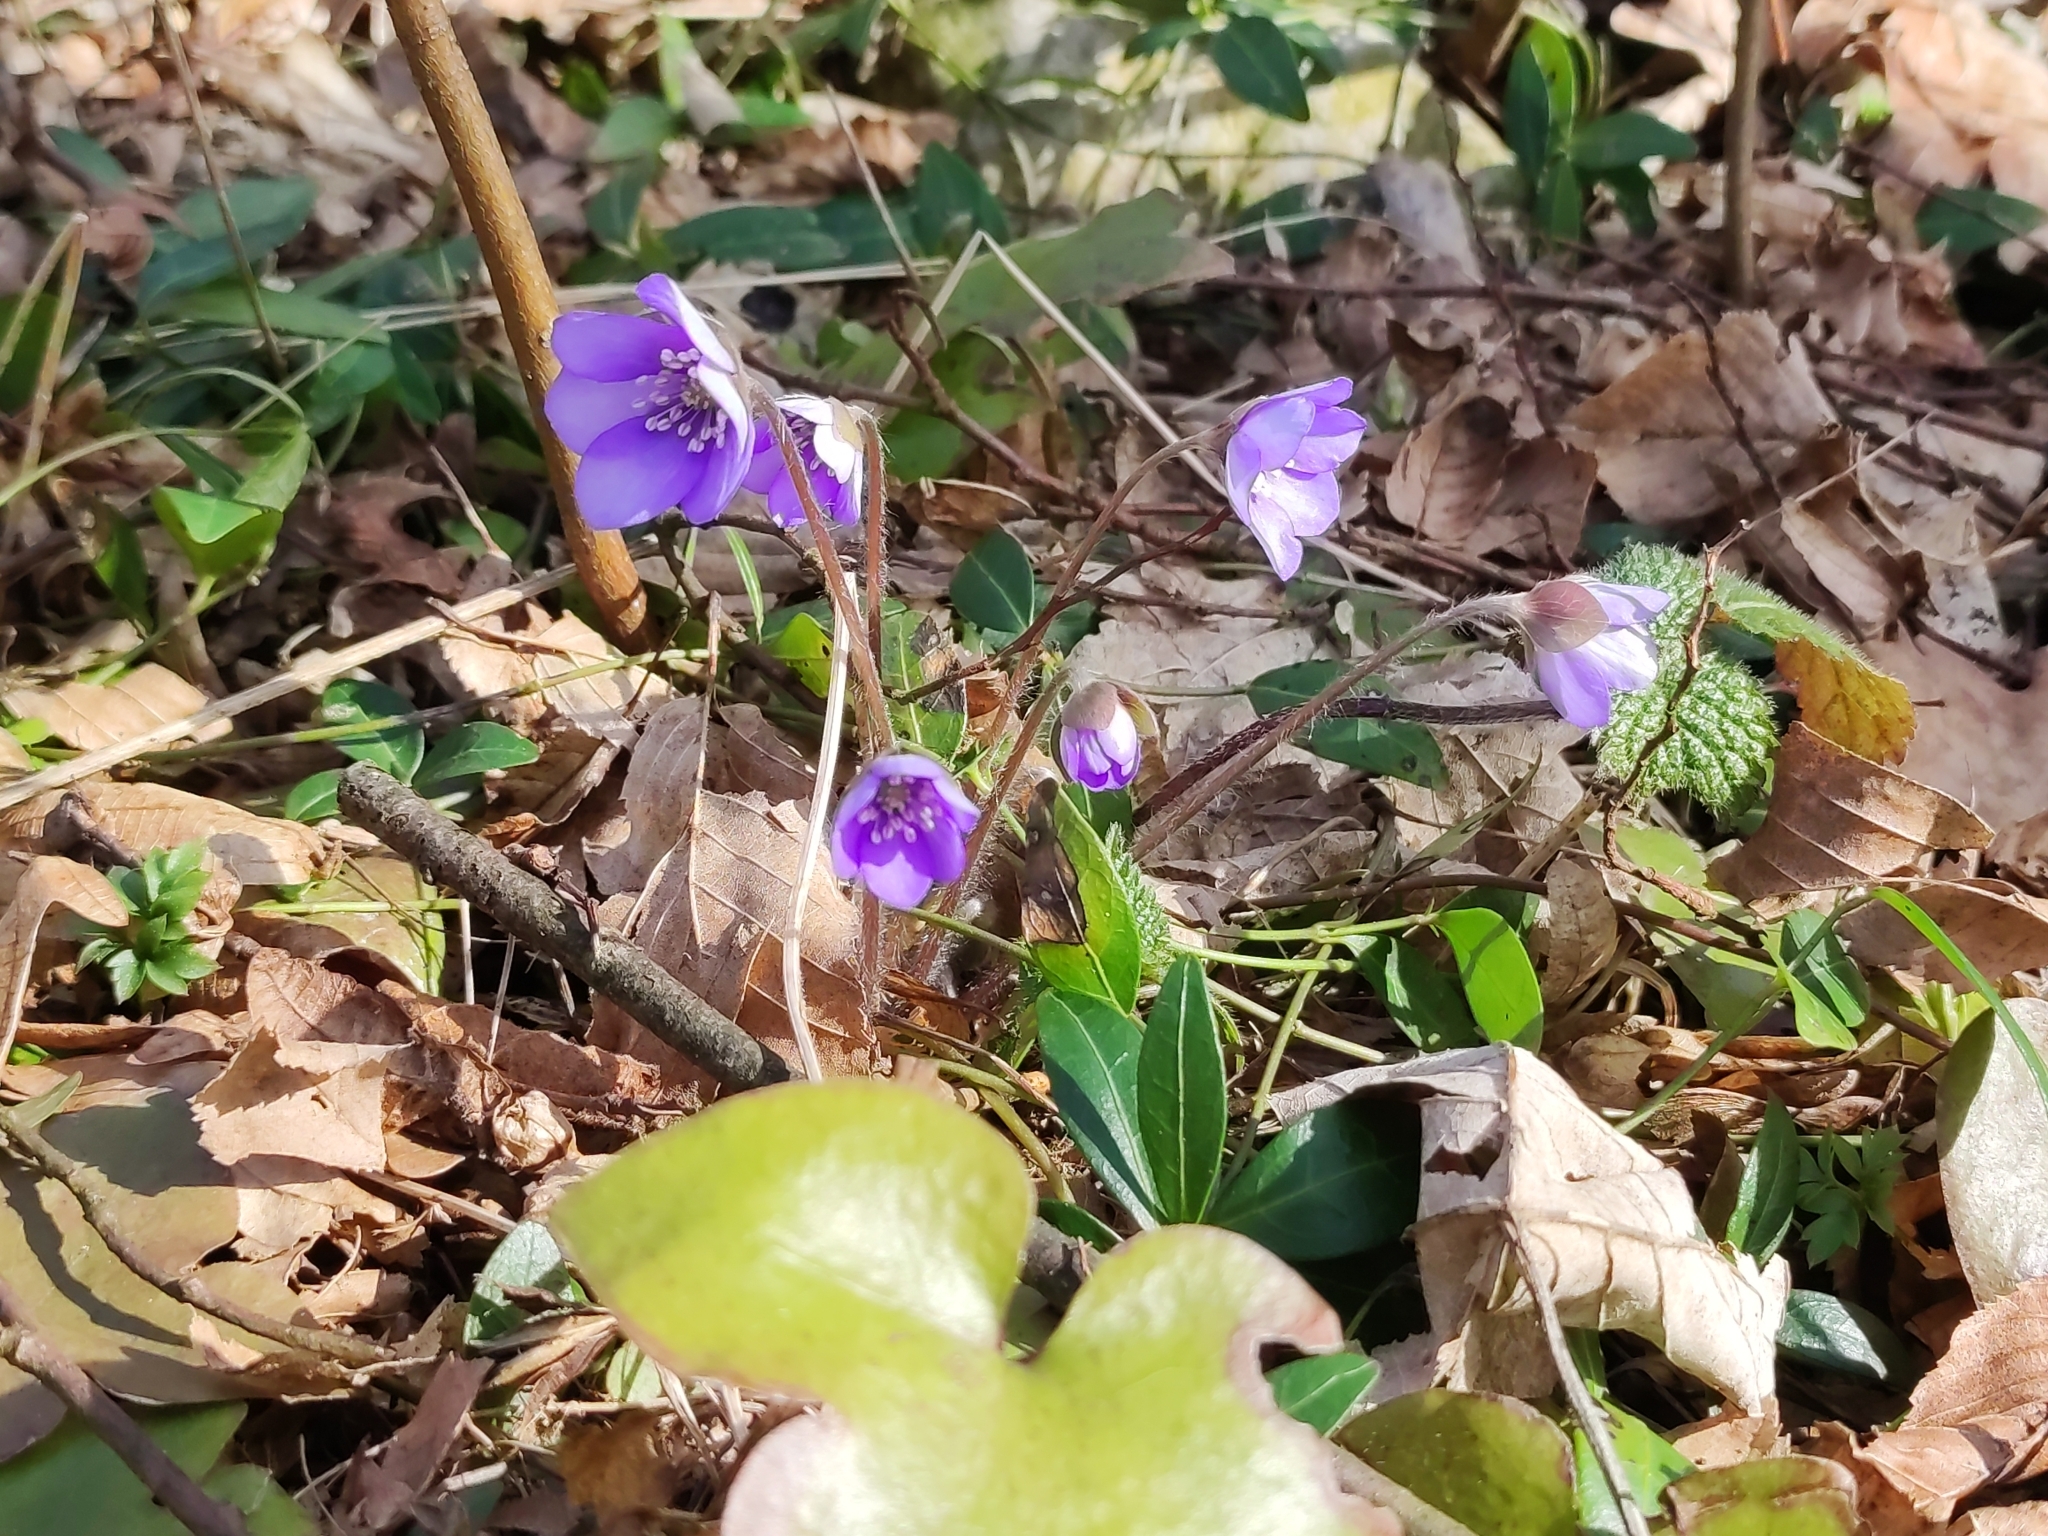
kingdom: Plantae
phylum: Tracheophyta
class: Magnoliopsida
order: Ranunculales
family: Ranunculaceae
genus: Hepatica
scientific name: Hepatica nobilis
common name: Liverleaf
